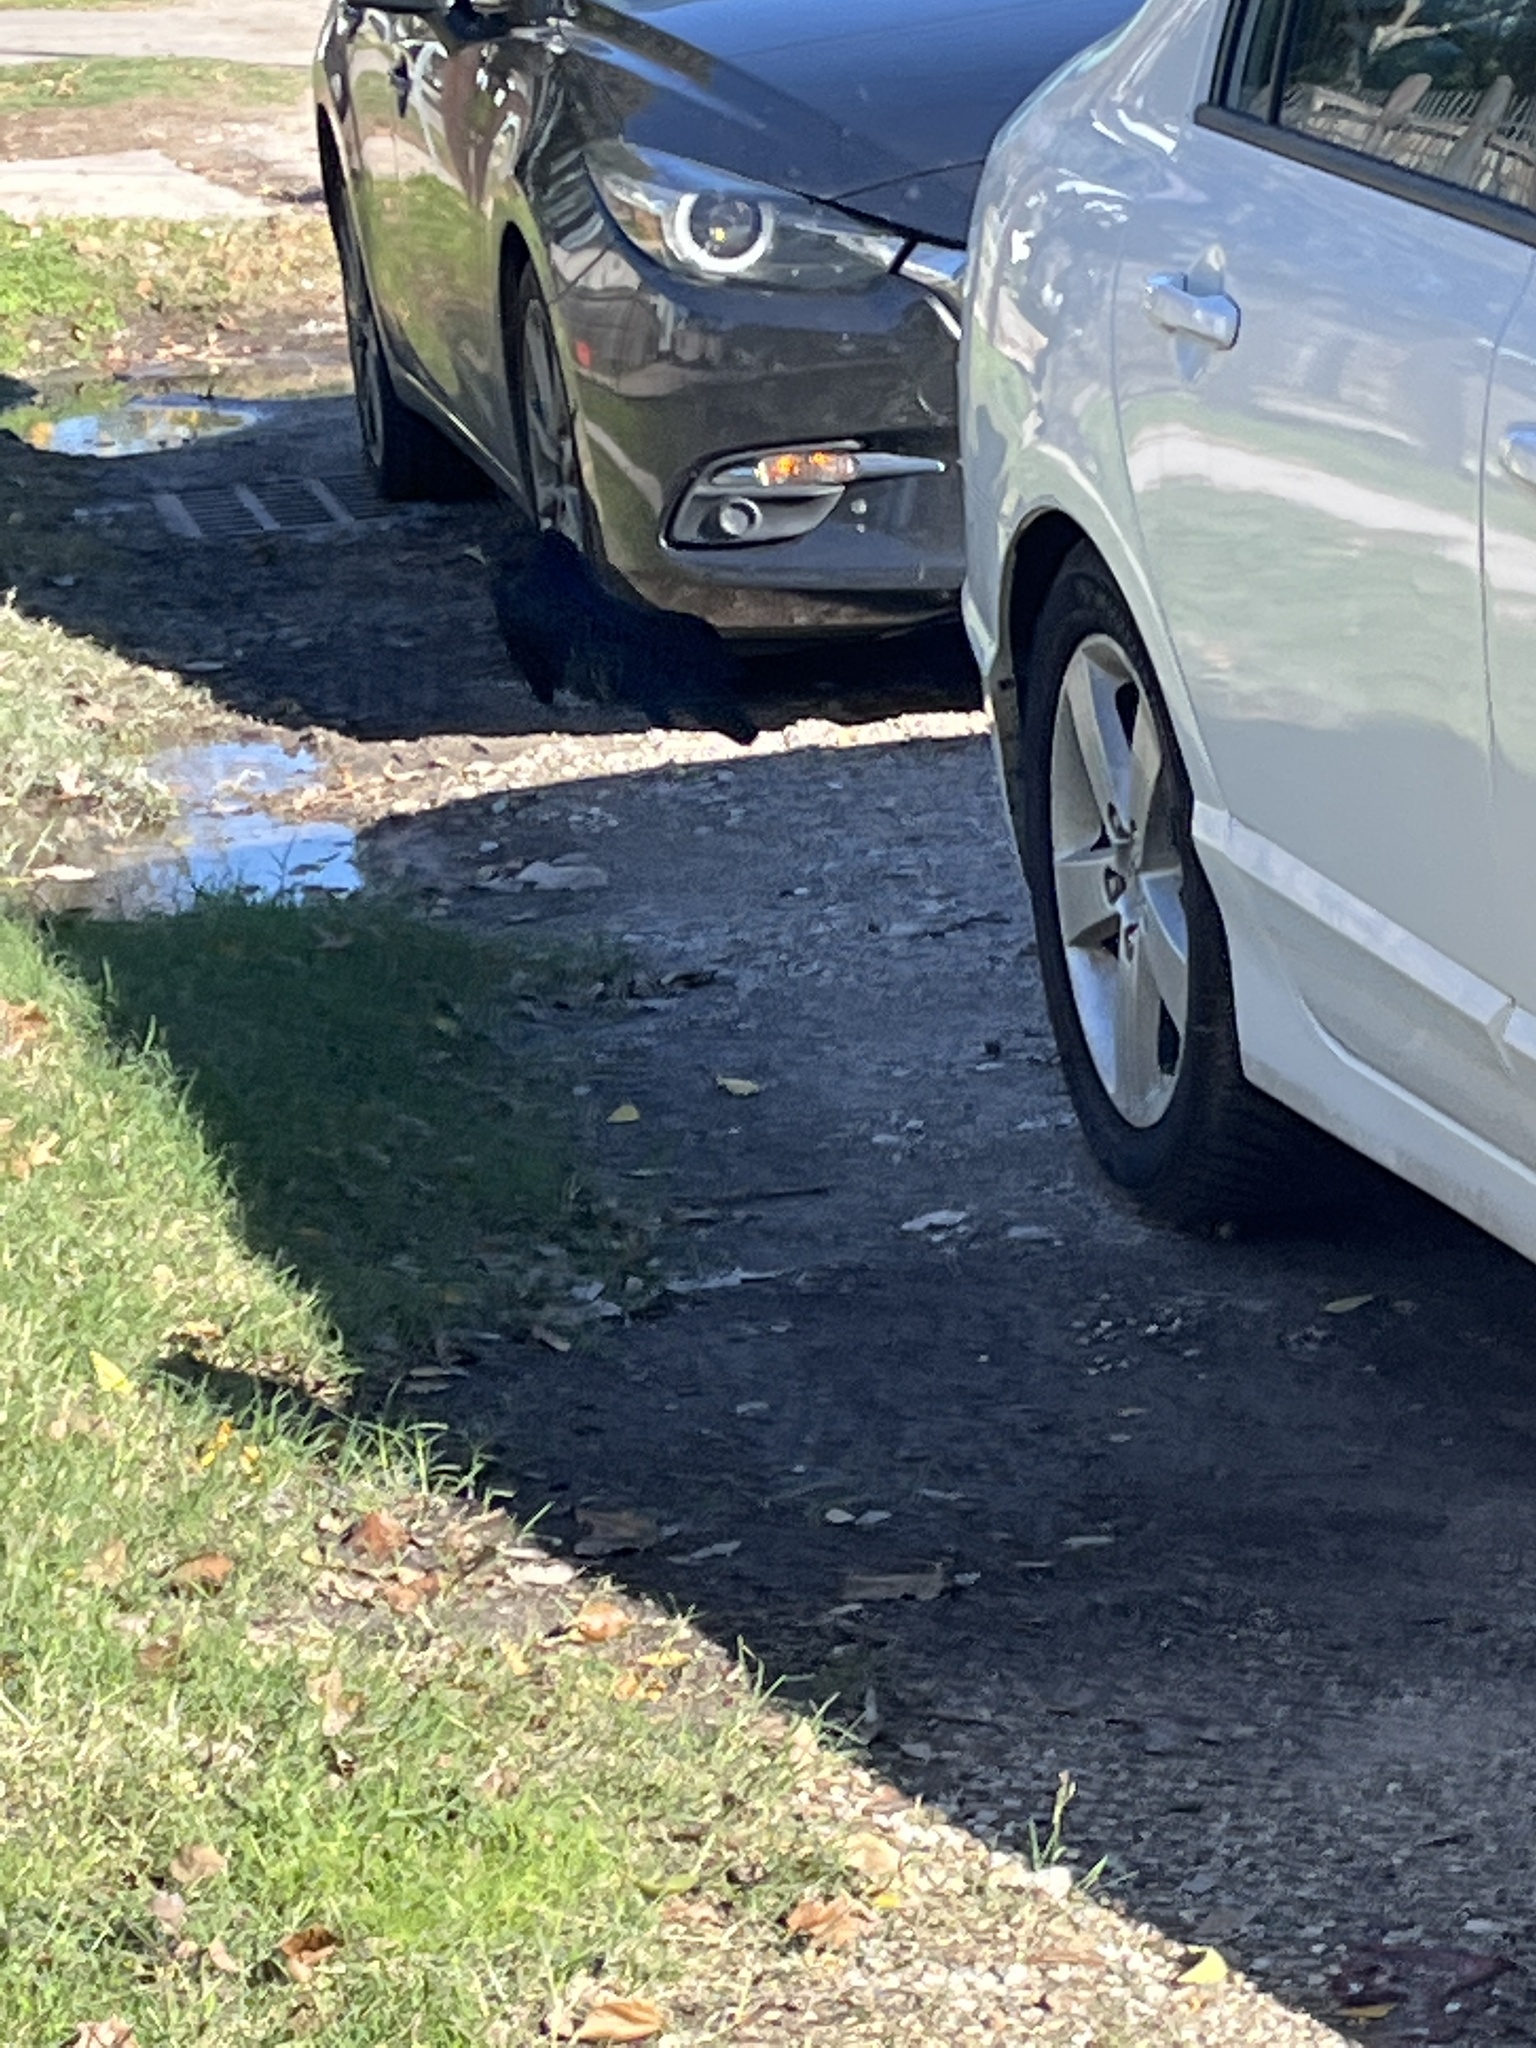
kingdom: Animalia
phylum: Chordata
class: Aves
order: Passeriformes
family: Icteridae
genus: Quiscalus
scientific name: Quiscalus mexicanus
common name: Great-tailed grackle
